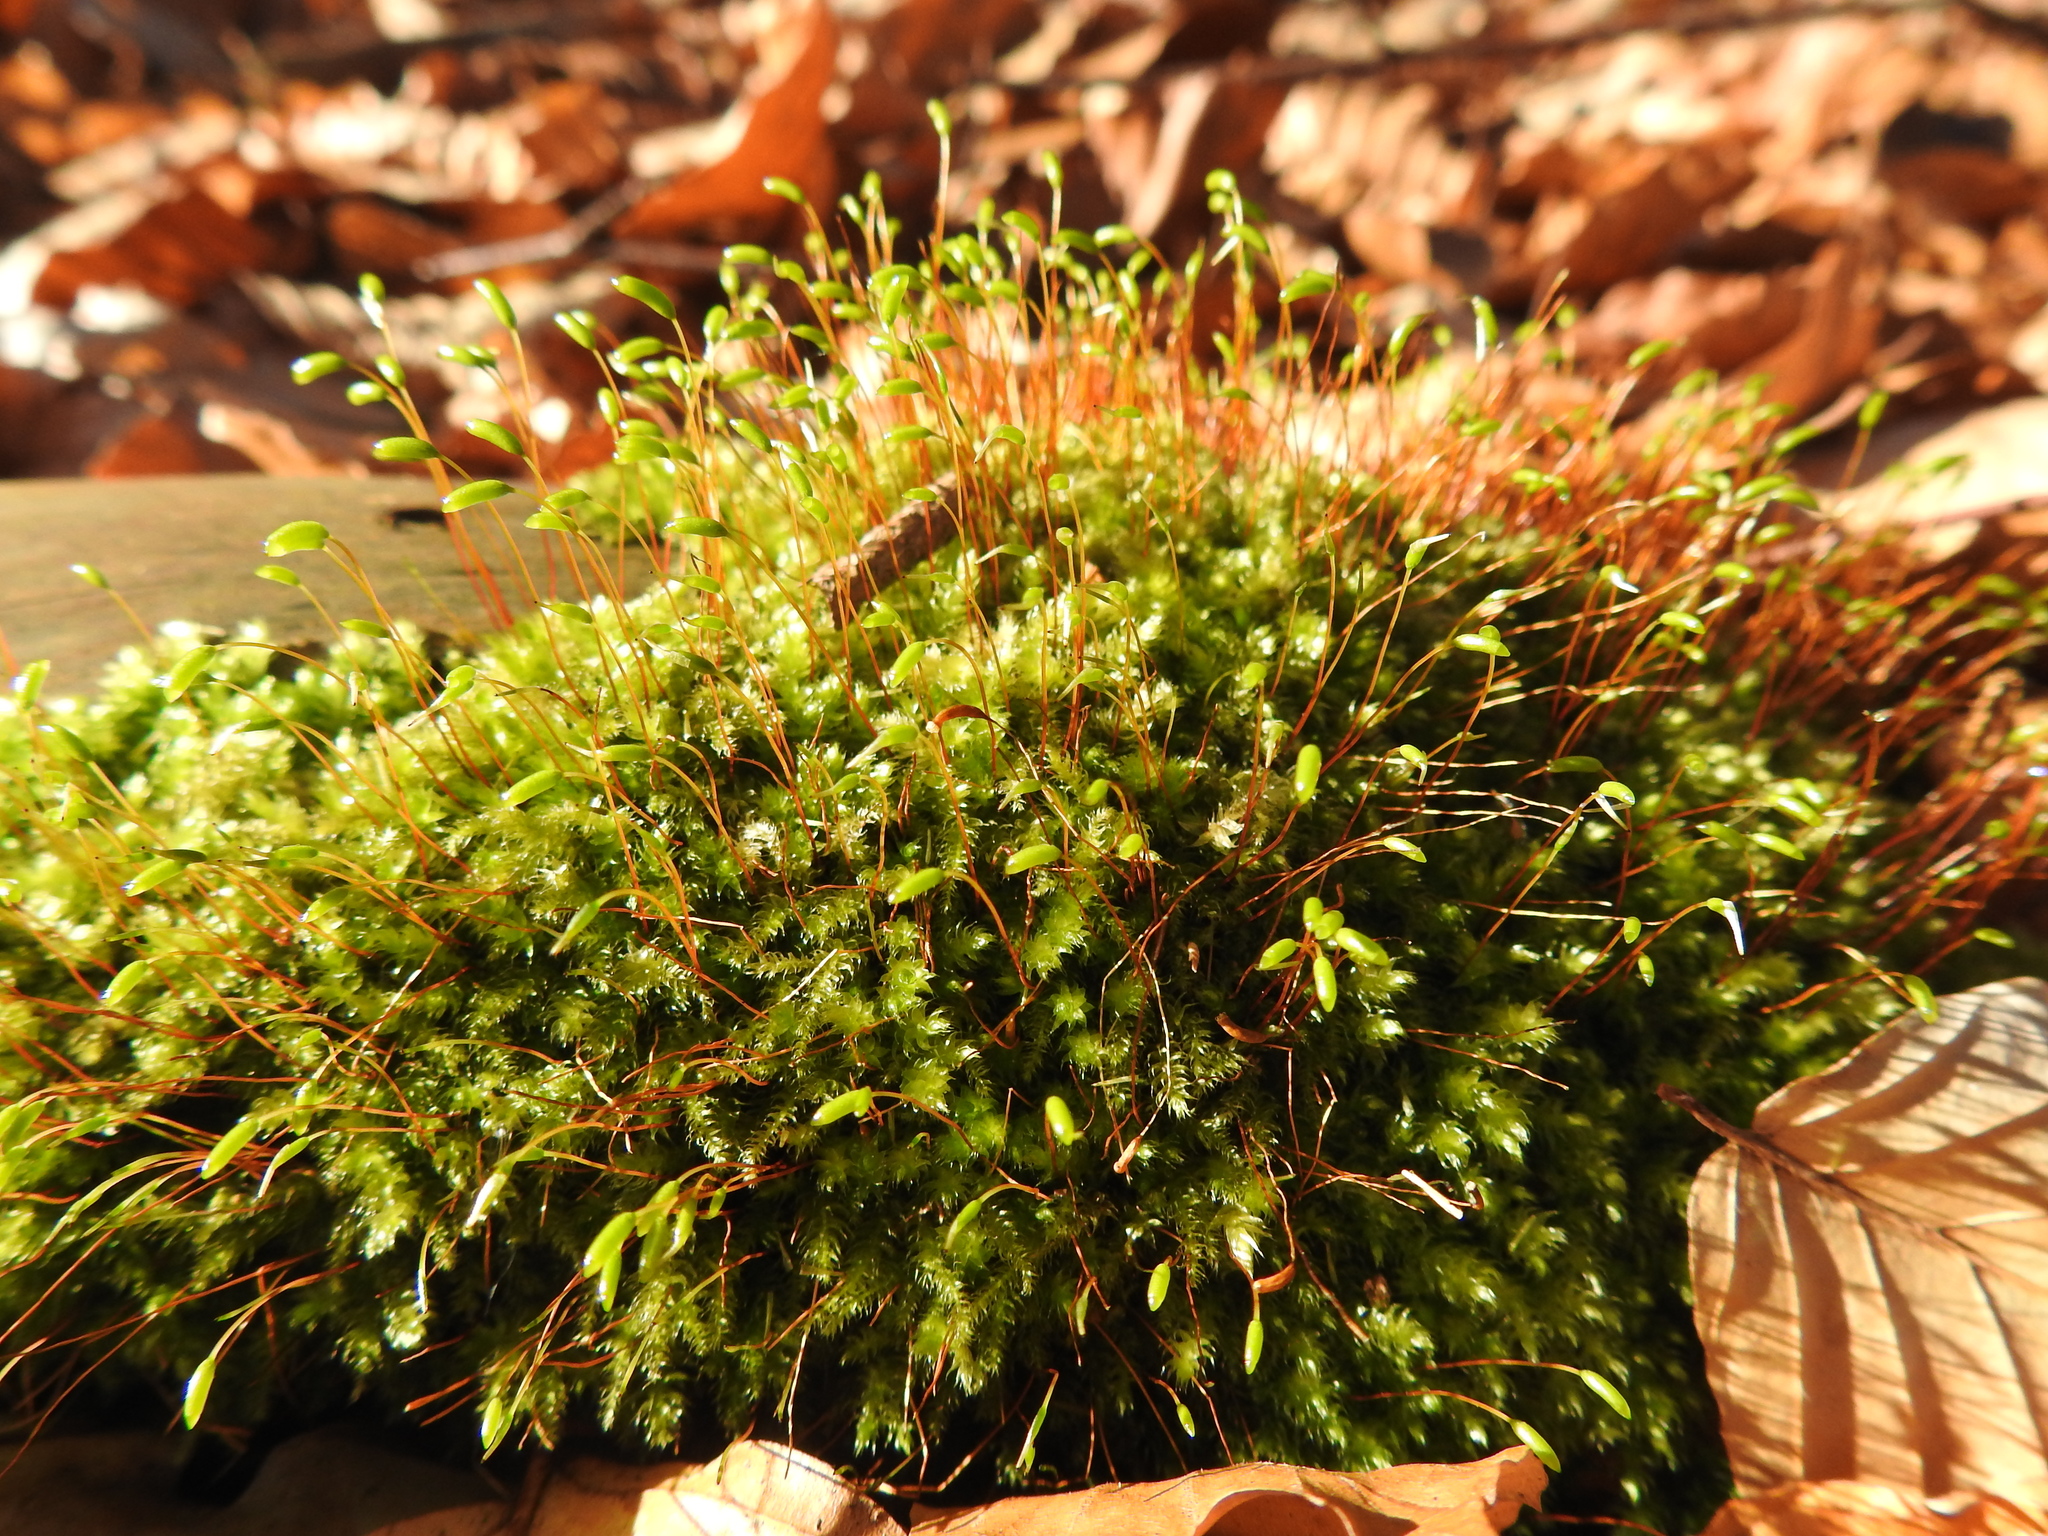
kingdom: Plantae
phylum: Bryophyta
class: Bryopsida
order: Hypnales
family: Plagiotheciaceae
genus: Herzogiella
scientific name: Herzogiella seligeri
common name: Silesian feather-moss
